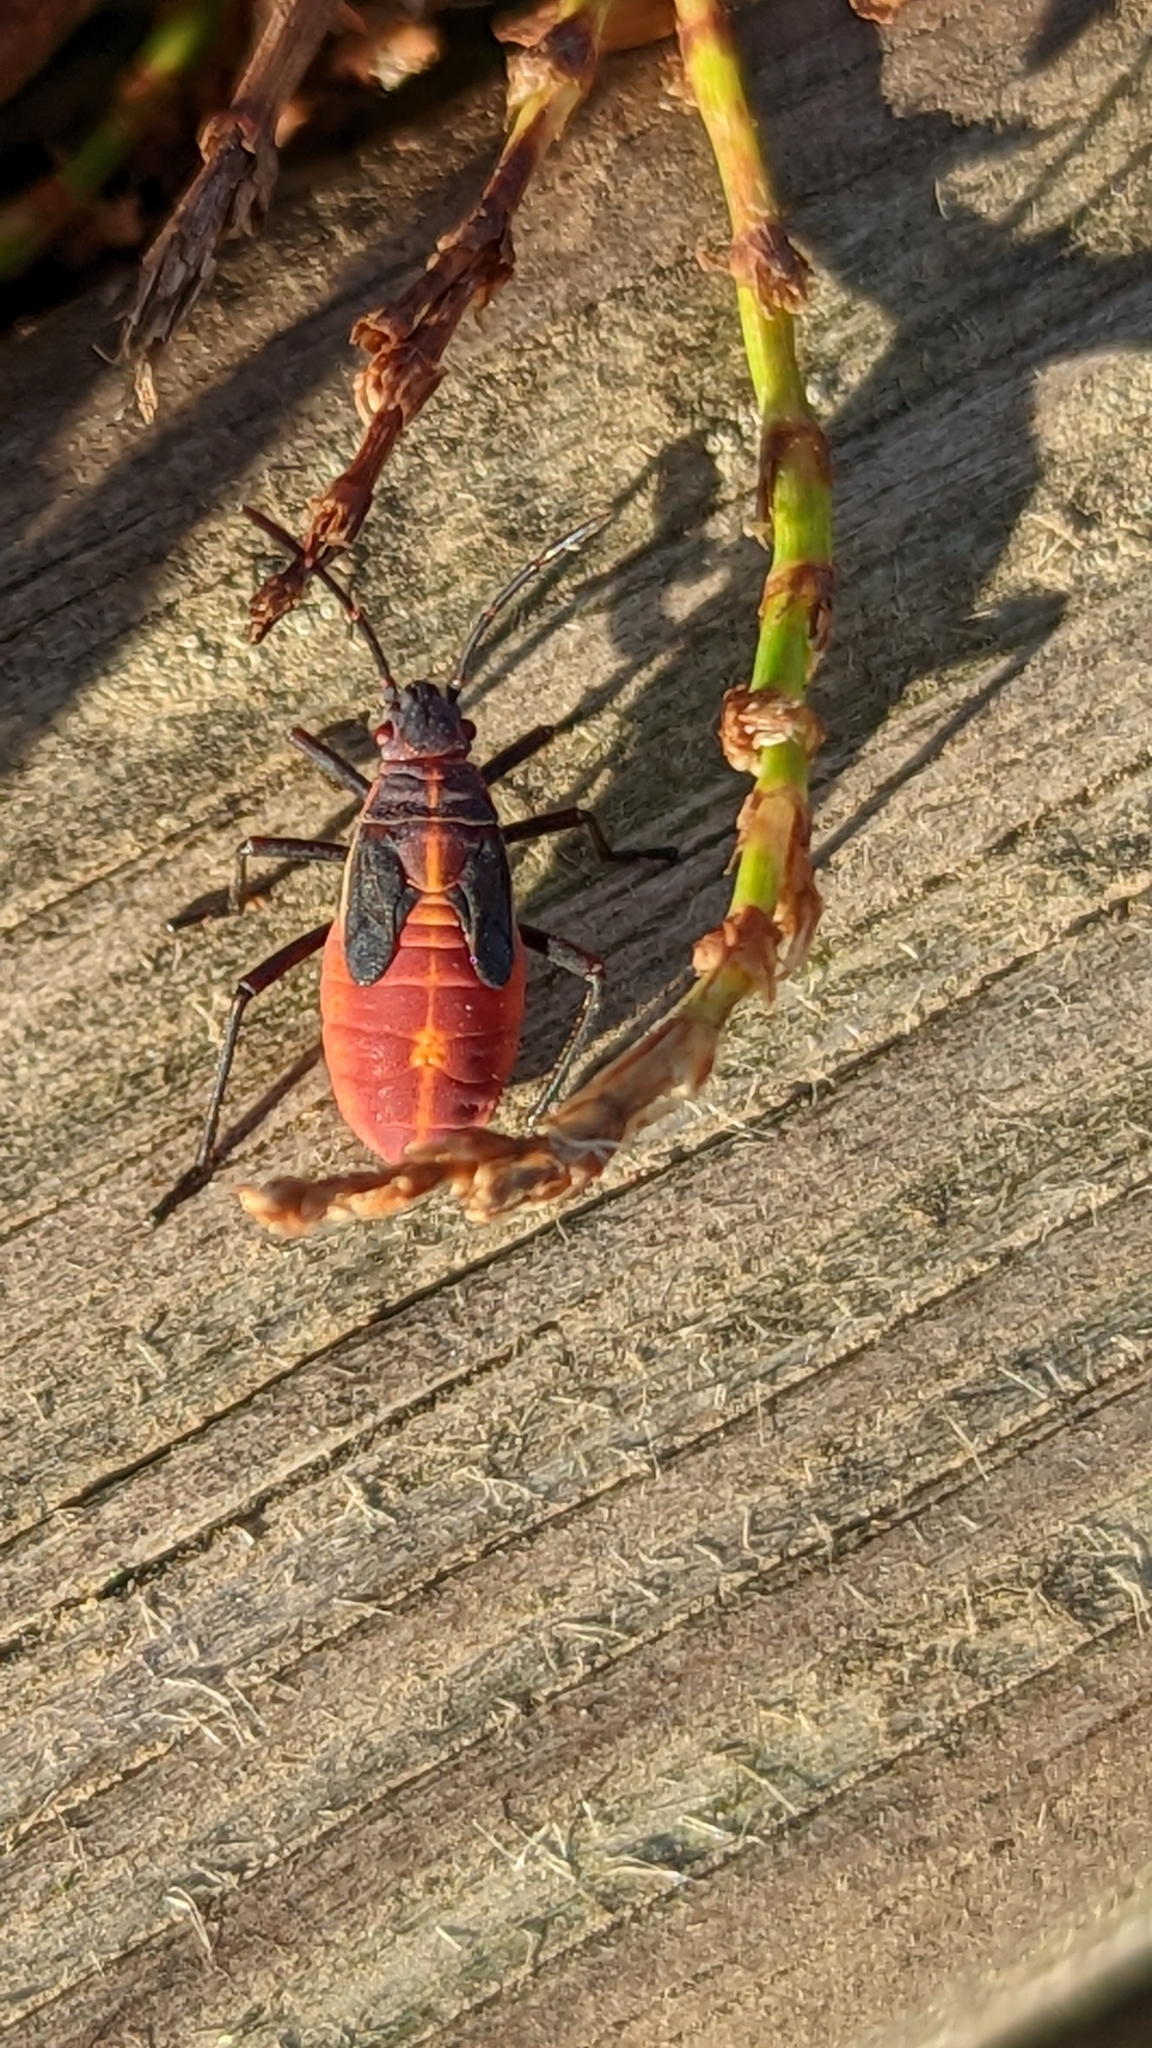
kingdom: Animalia
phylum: Arthropoda
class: Insecta
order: Hemiptera
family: Rhopalidae
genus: Boisea
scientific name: Boisea trivittata
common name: Boxelder bug
